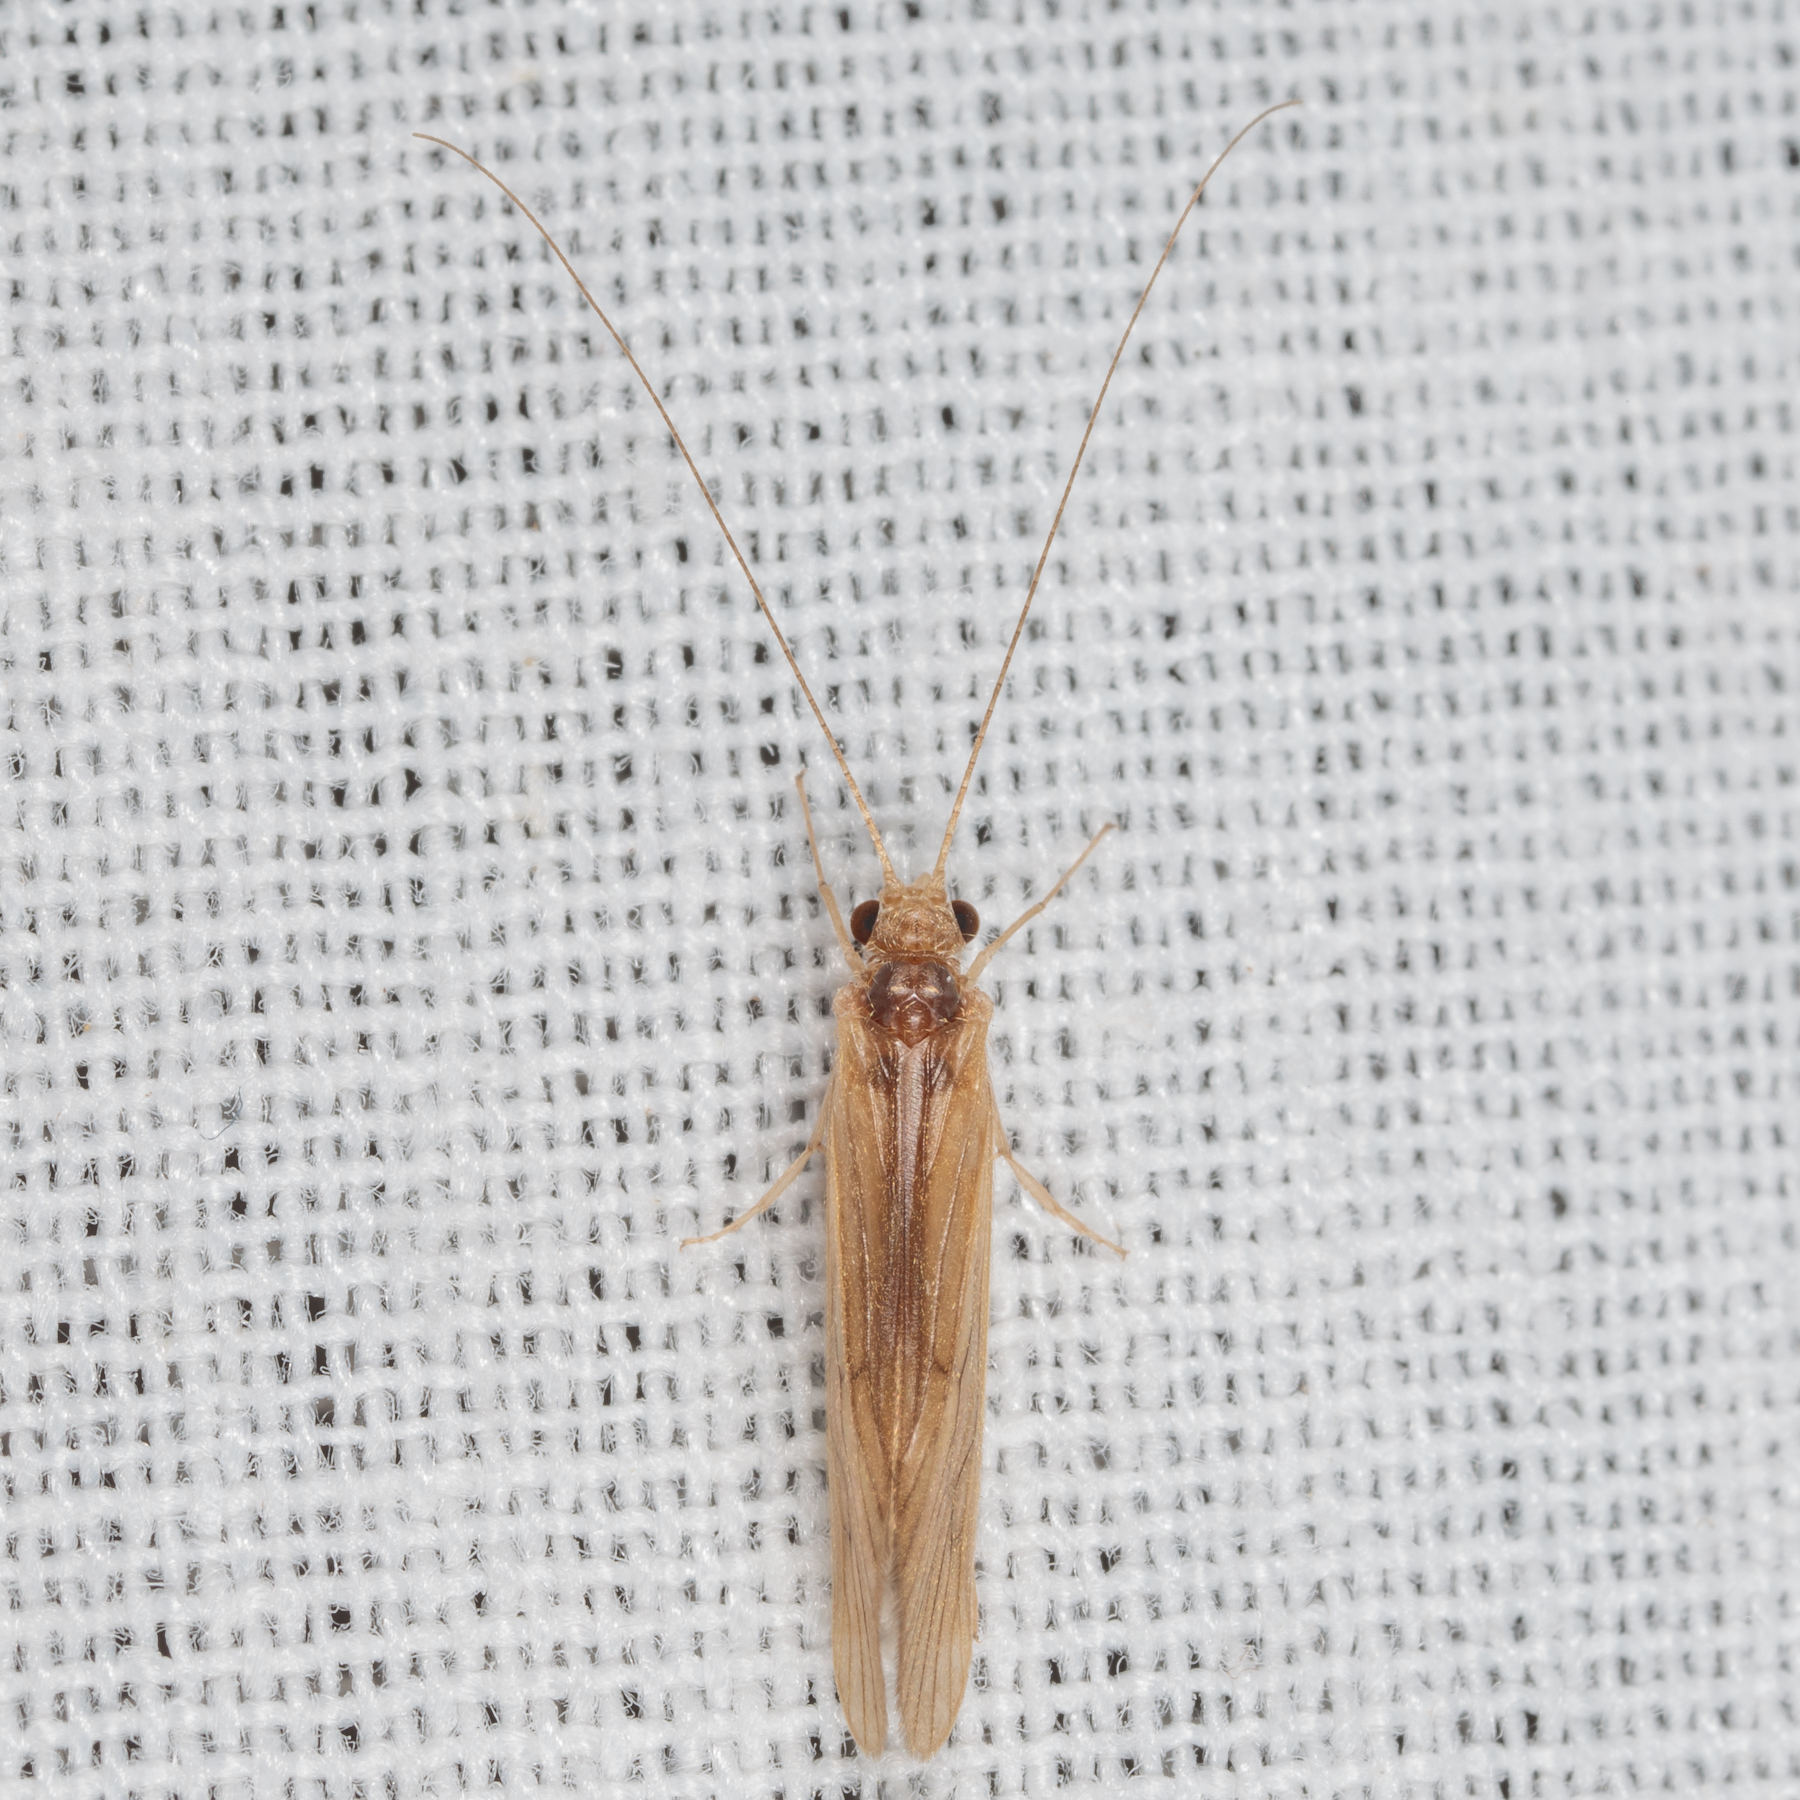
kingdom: Animalia
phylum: Arthropoda
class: Insecta
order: Trichoptera
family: Hydropsychidae
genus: Potamyia
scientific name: Potamyia flava
